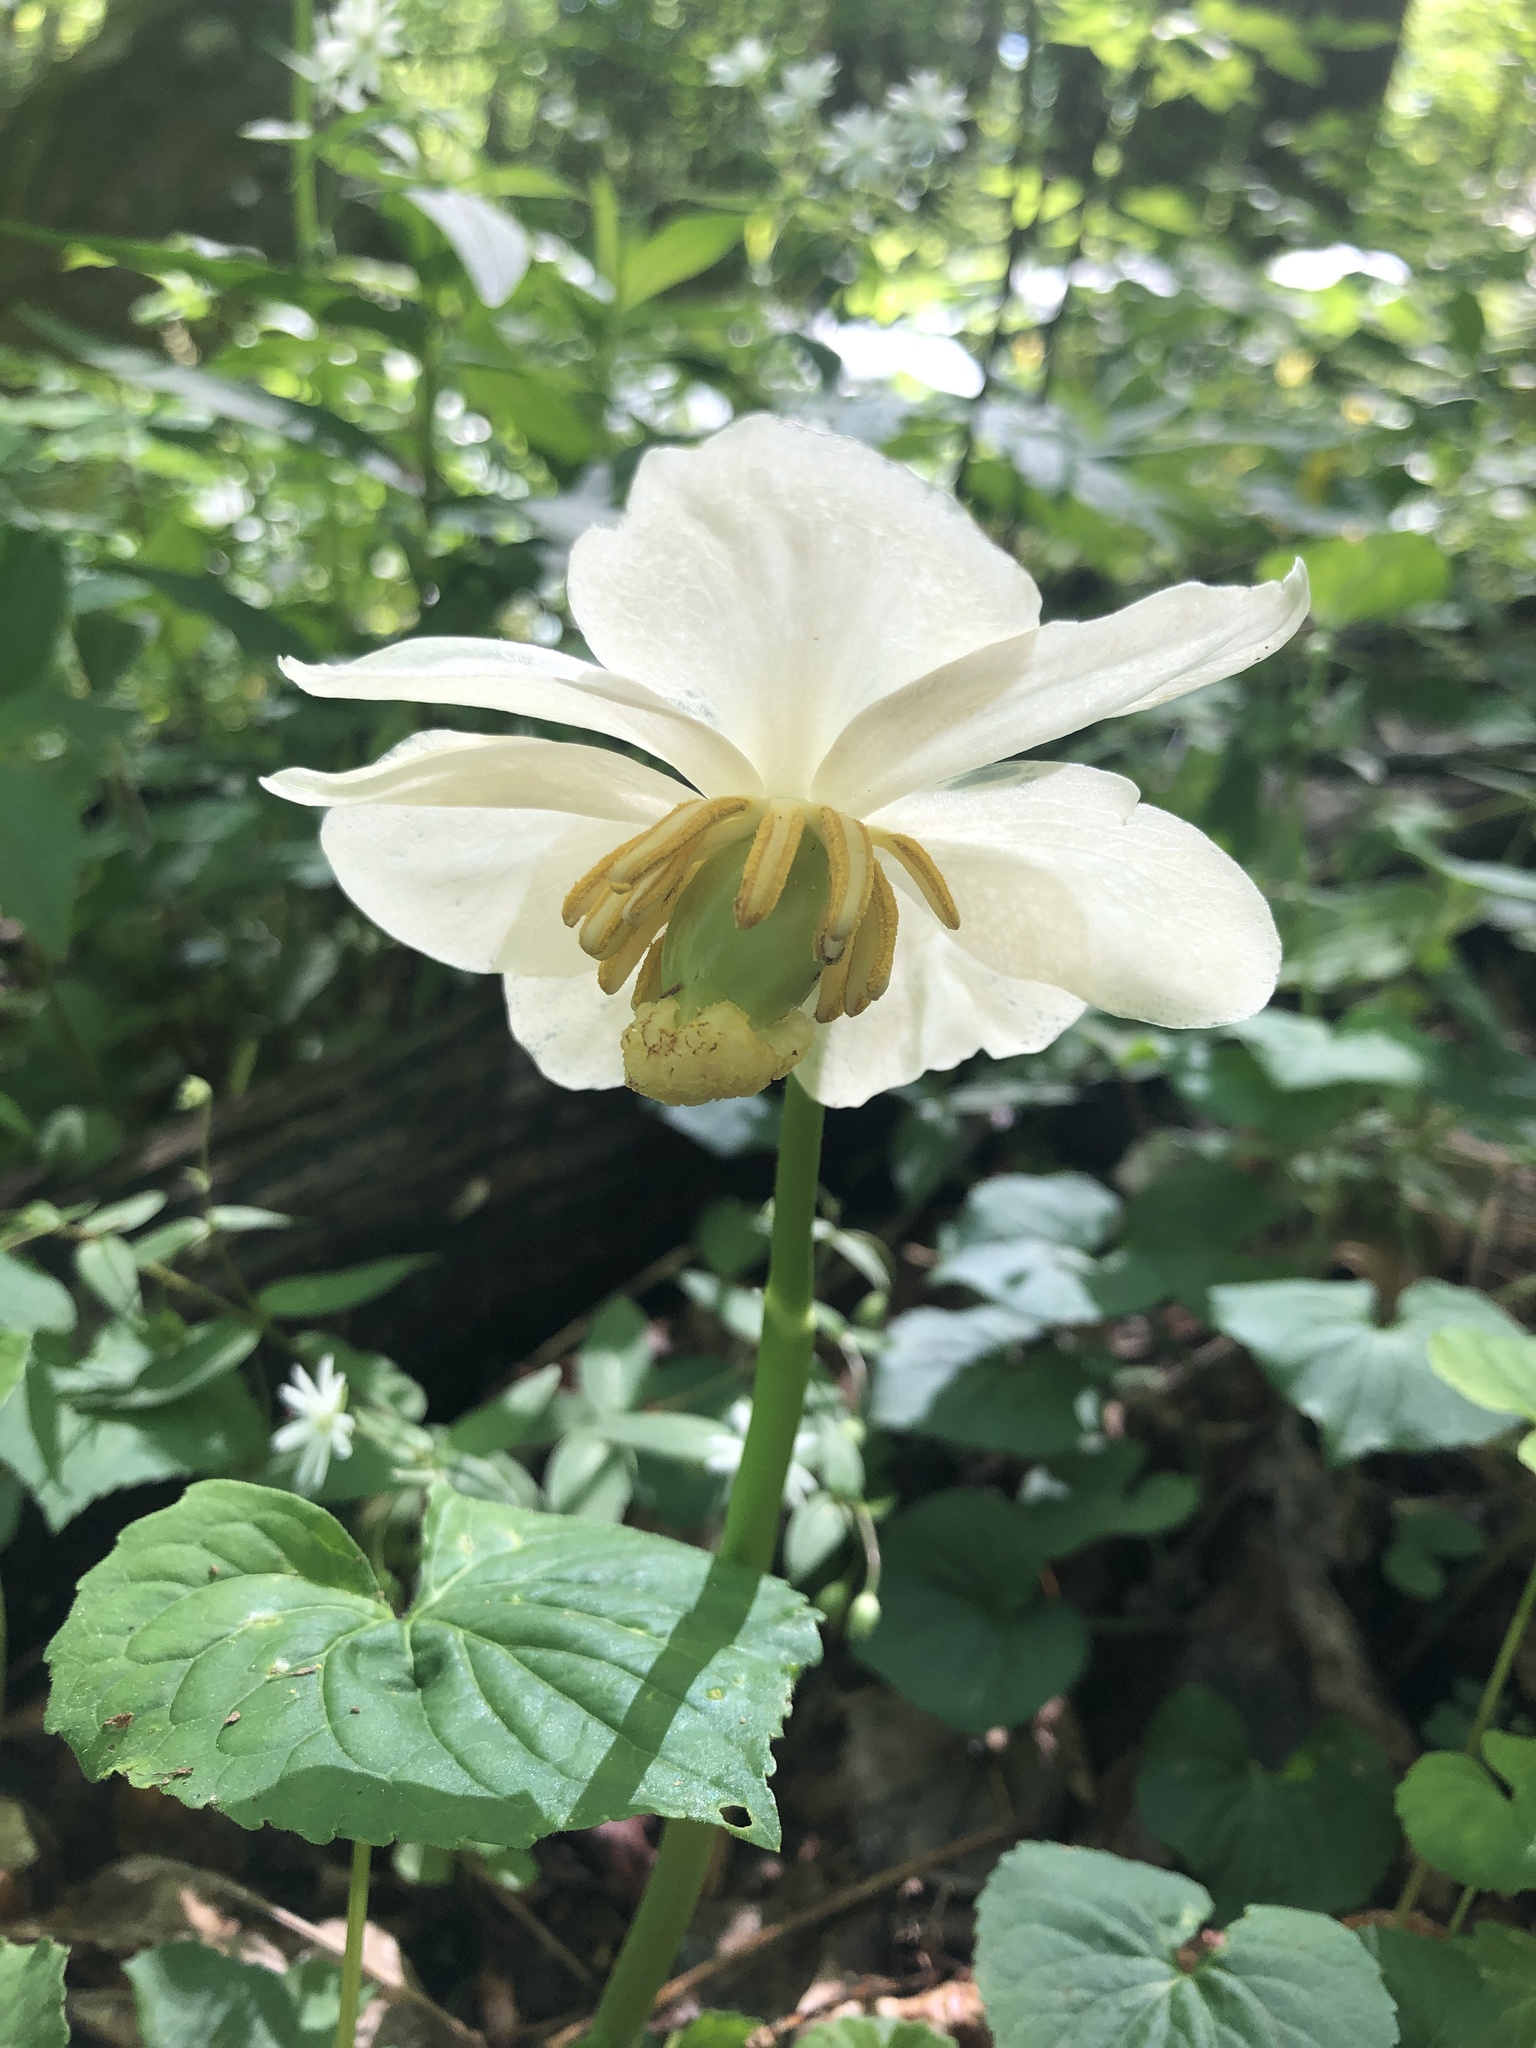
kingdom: Plantae
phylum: Tracheophyta
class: Magnoliopsida
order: Ranunculales
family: Berberidaceae
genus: Podophyllum
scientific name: Podophyllum peltatum
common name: Wild mandrake
